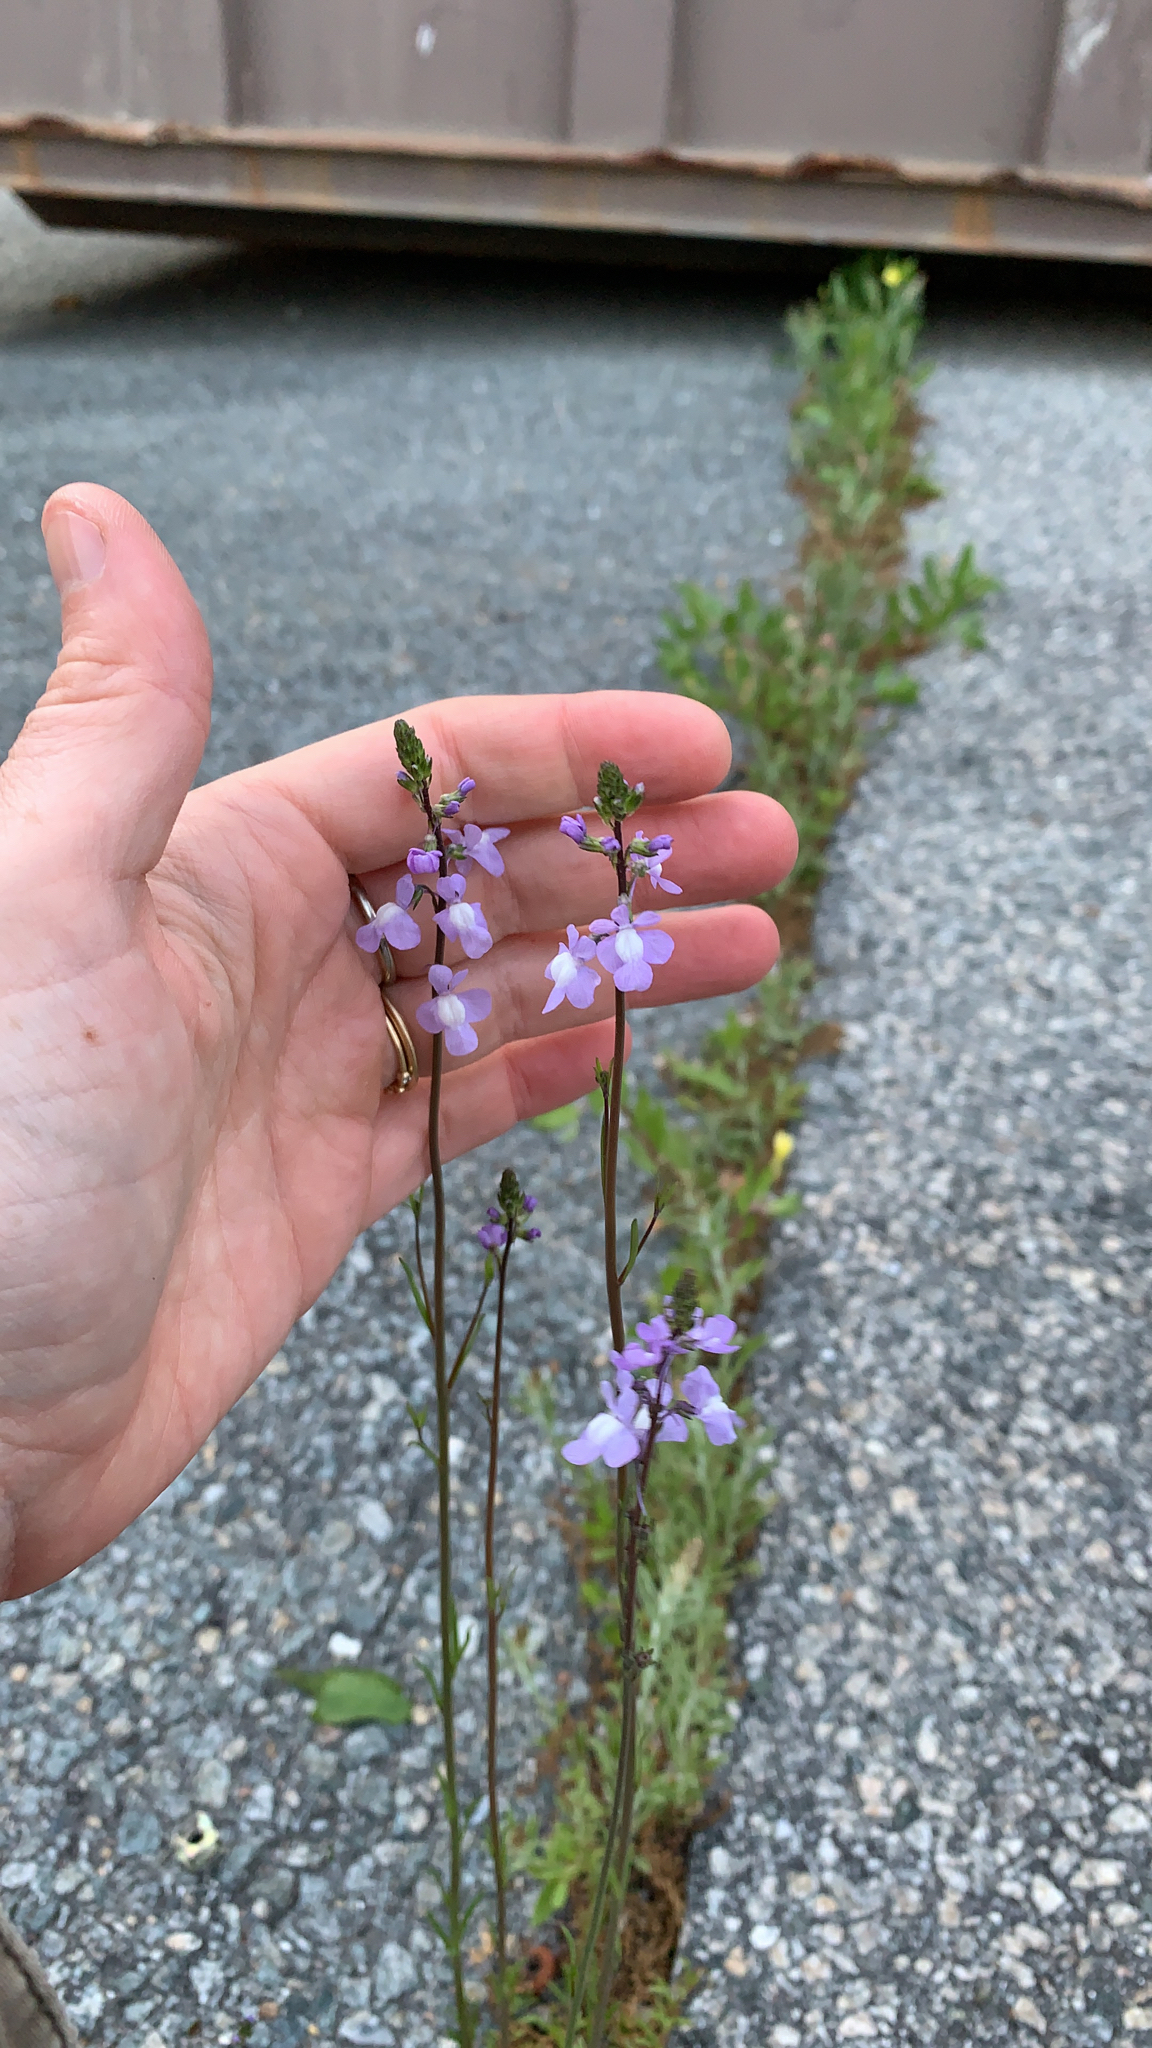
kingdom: Plantae
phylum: Tracheophyta
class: Magnoliopsida
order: Lamiales
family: Plantaginaceae
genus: Nuttallanthus
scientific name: Nuttallanthus canadensis
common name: Blue toadflax
